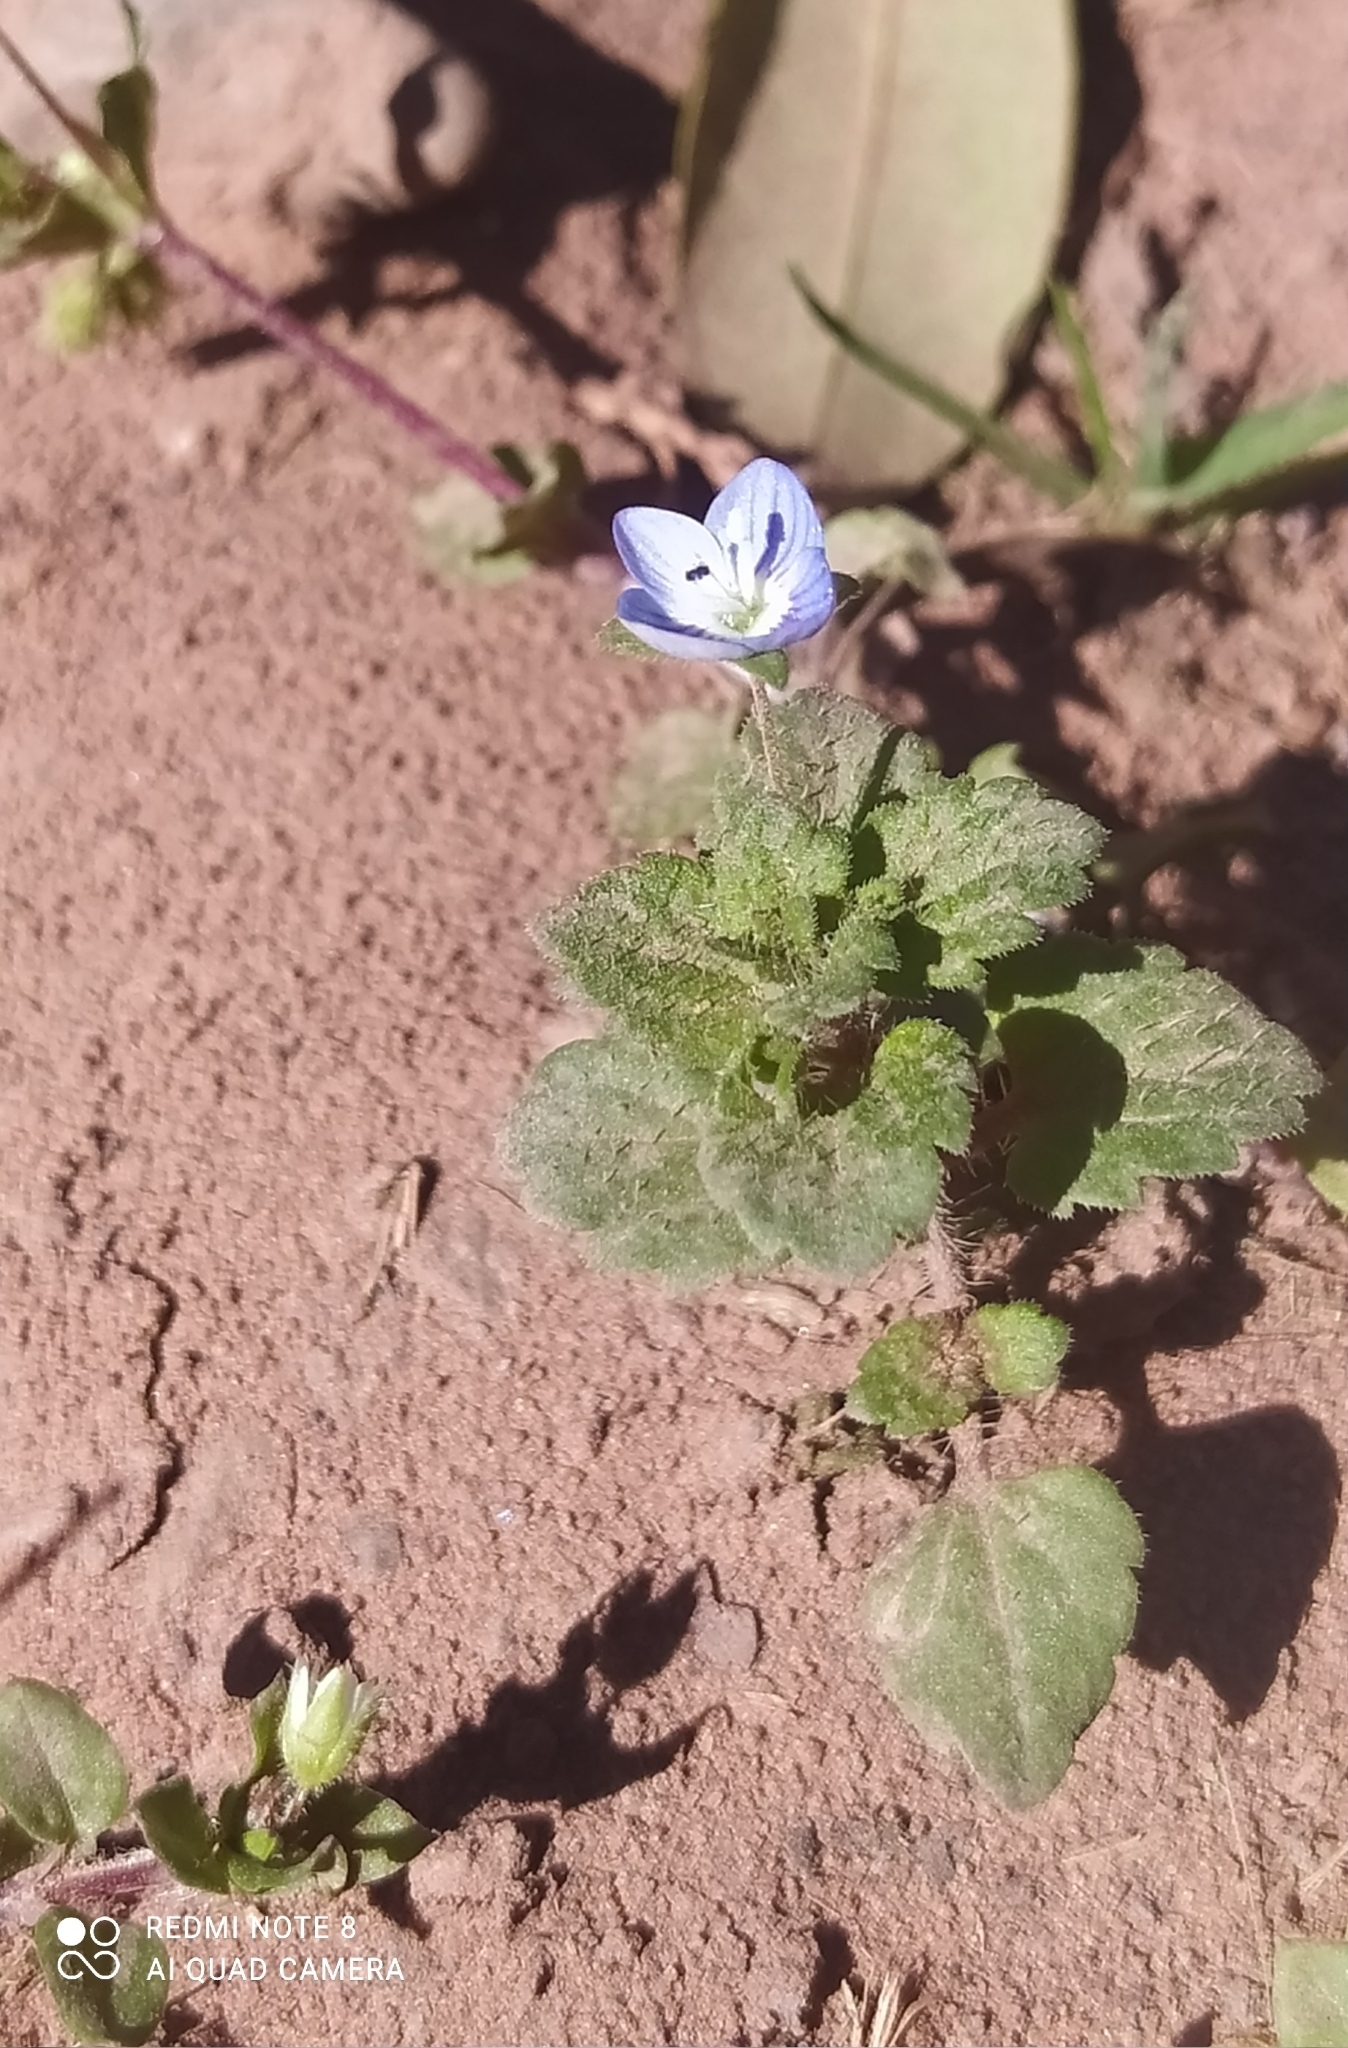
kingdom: Plantae
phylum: Tracheophyta
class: Magnoliopsida
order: Lamiales
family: Plantaginaceae
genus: Veronica
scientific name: Veronica persica
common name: Common field-speedwell
